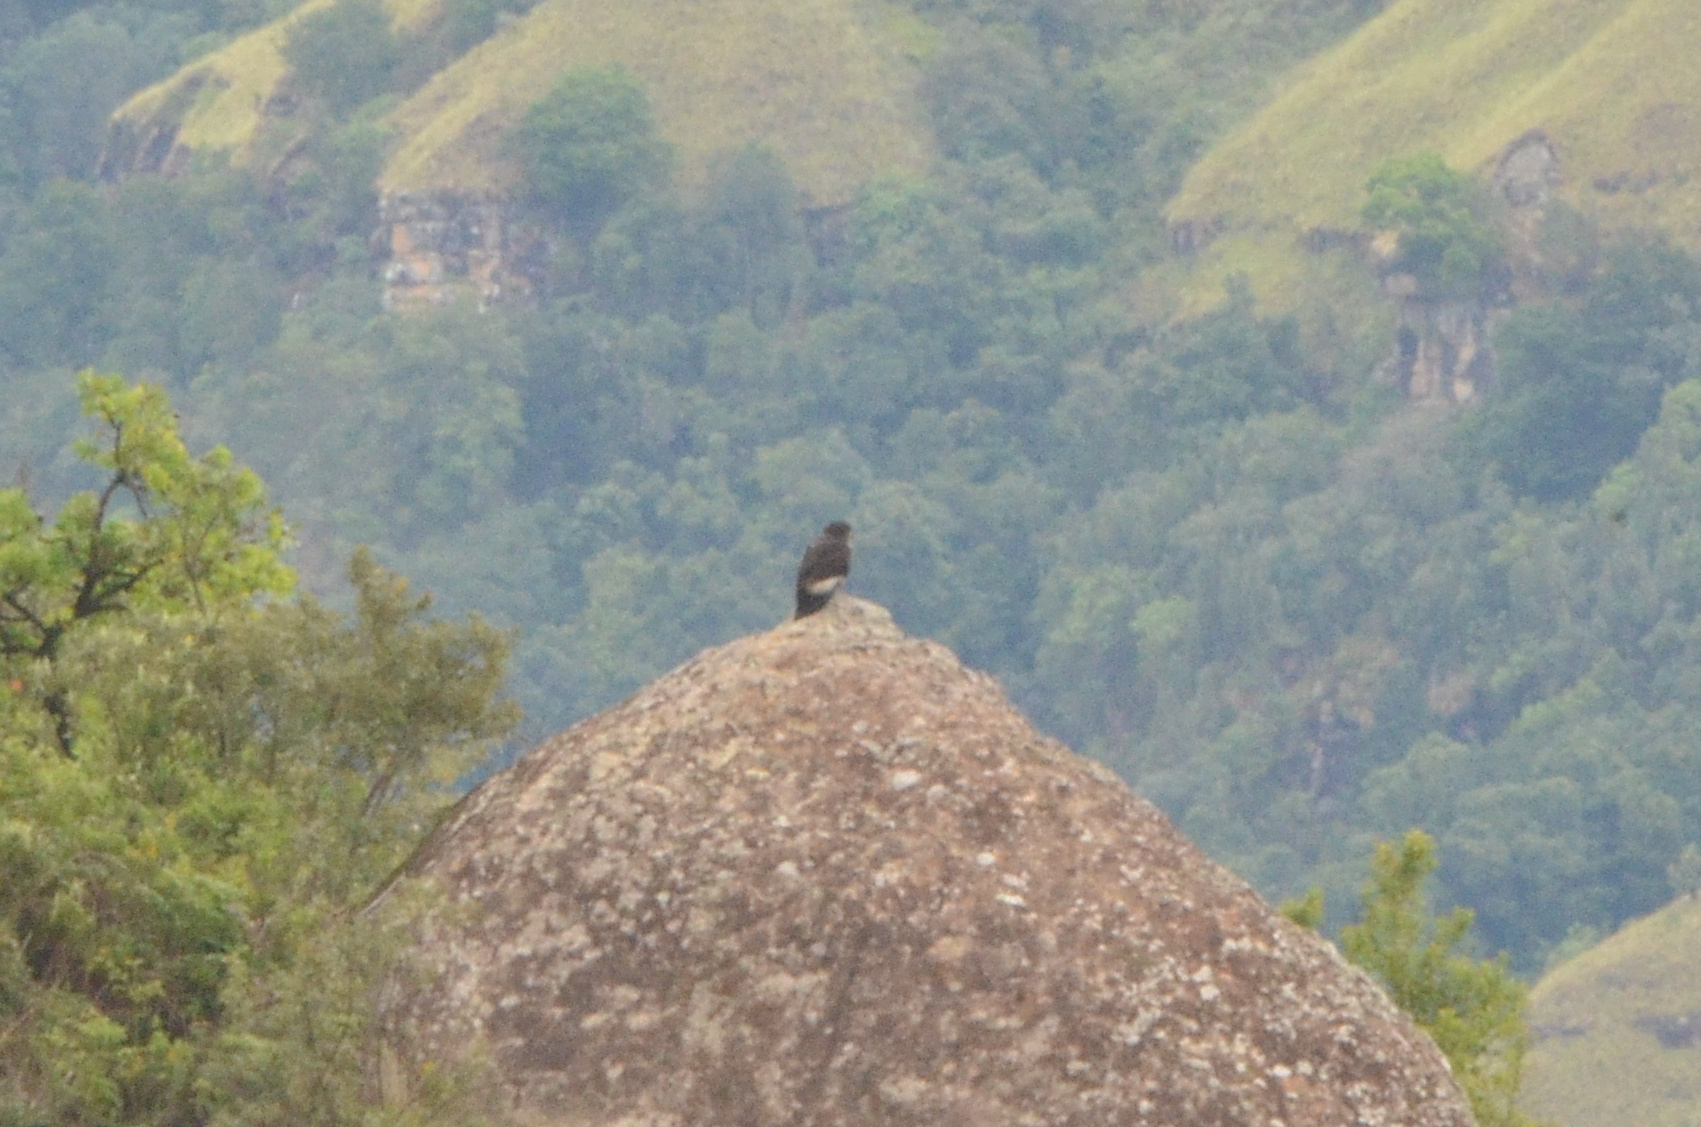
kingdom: Animalia
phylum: Chordata
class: Aves
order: Accipitriformes
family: Accipitridae
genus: Buteo
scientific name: Buteo rufofuscus
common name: Jackal buzzard
